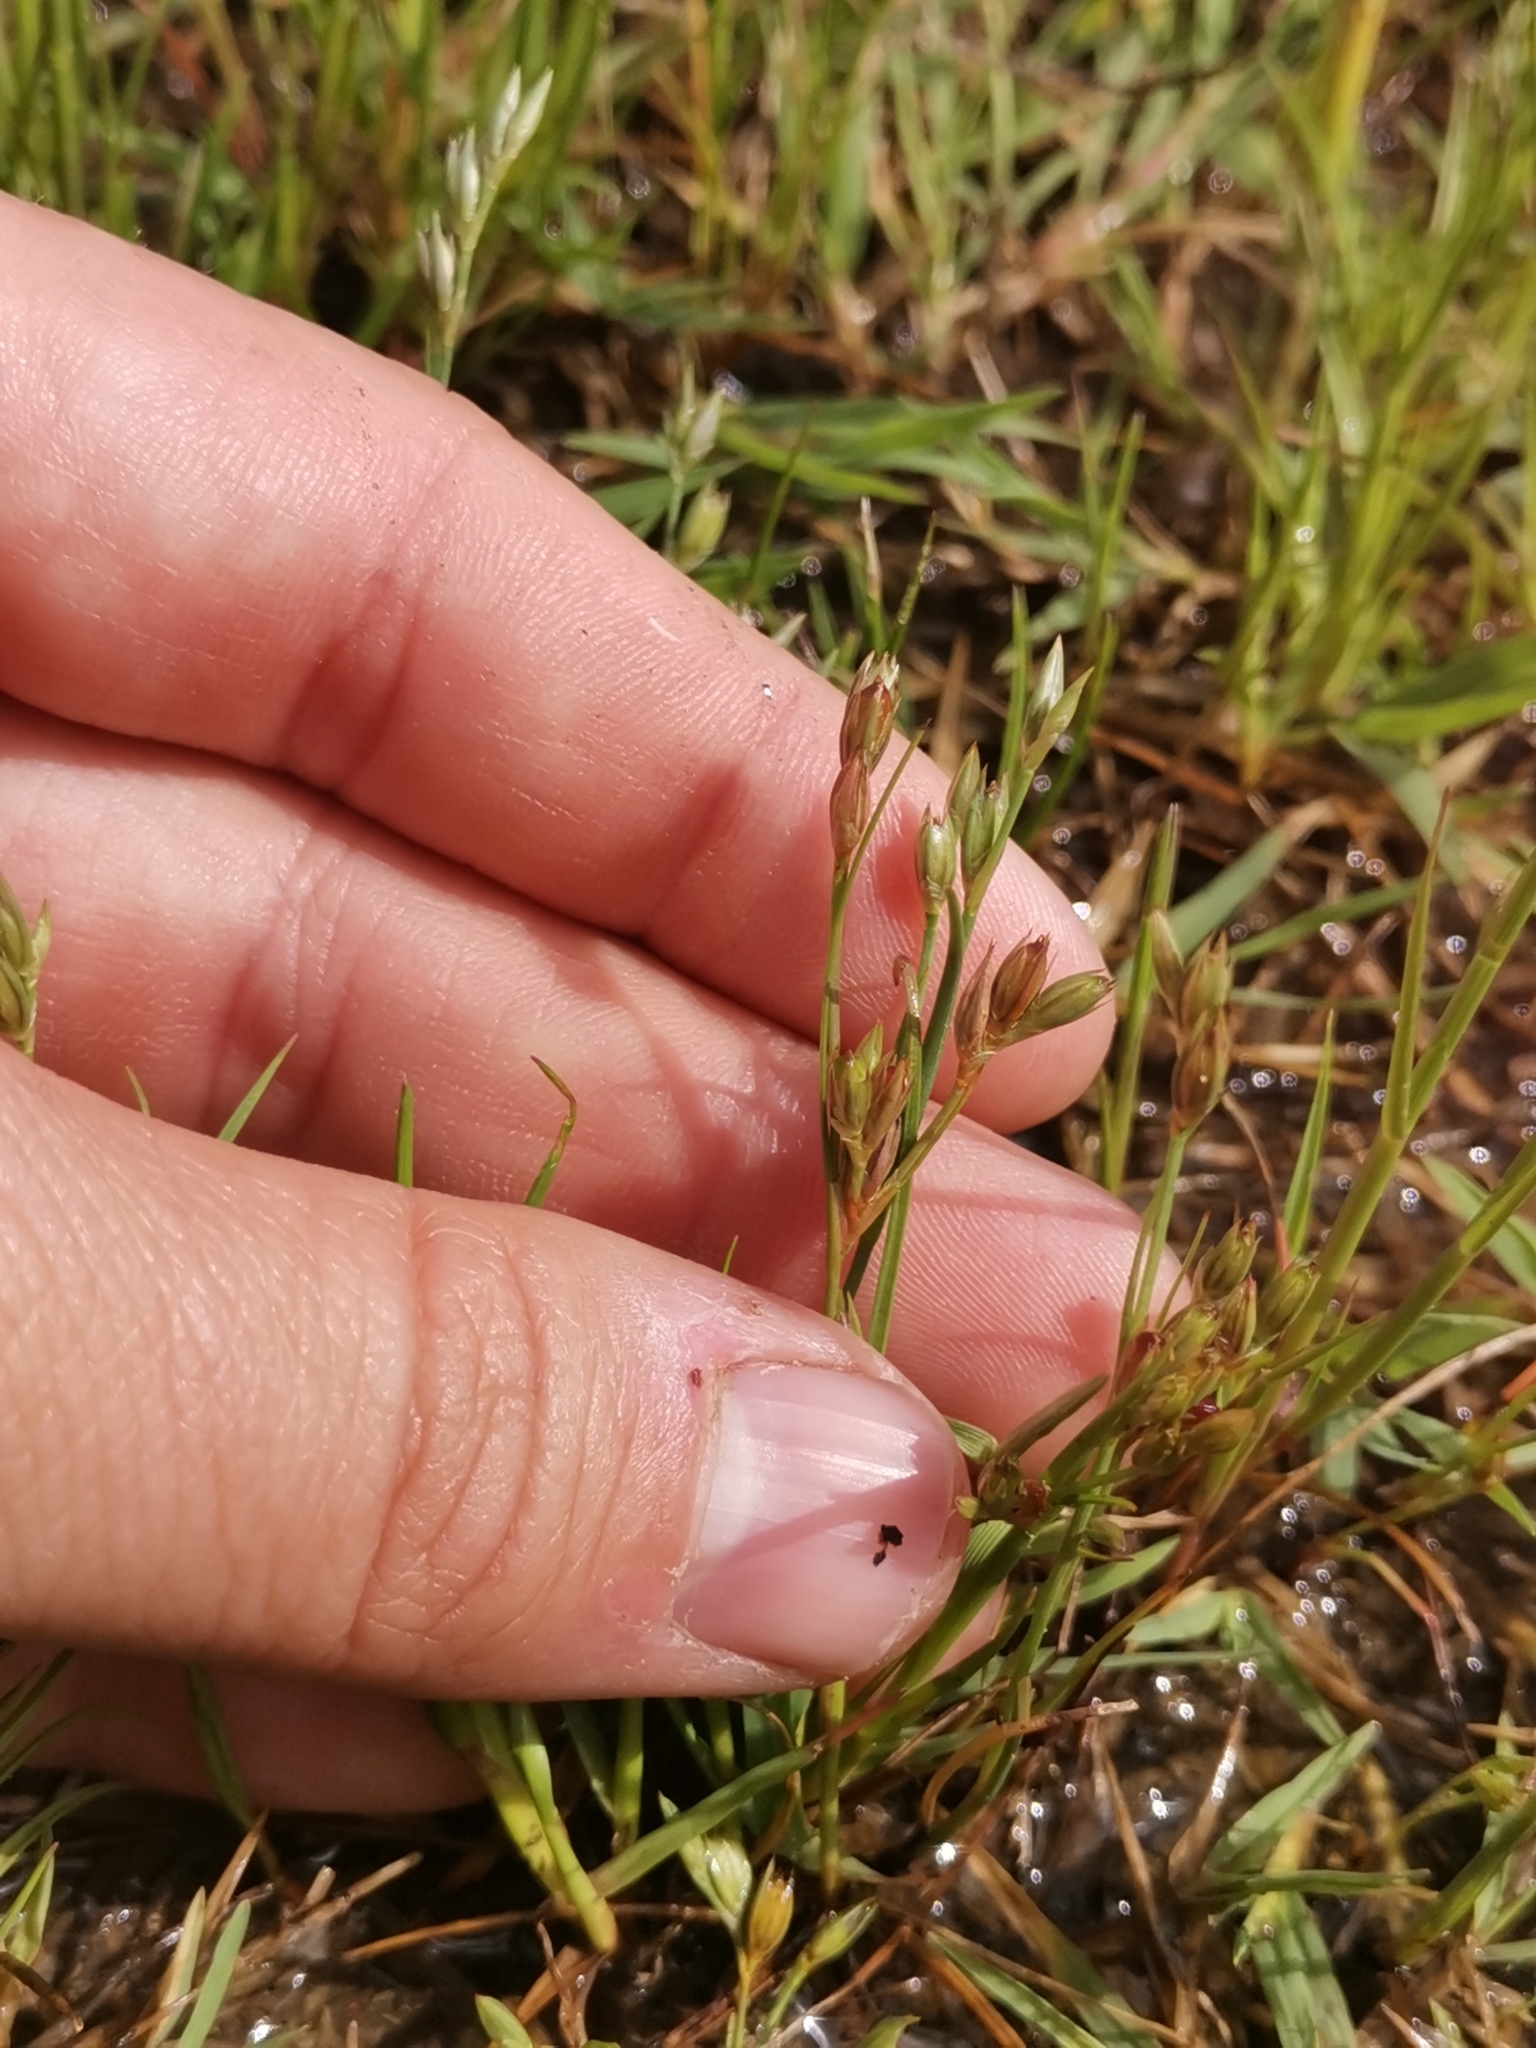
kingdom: Plantae
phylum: Tracheophyta
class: Liliopsida
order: Poales
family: Juncaceae
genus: Juncus
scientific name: Juncus bufonius
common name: Toad rush
